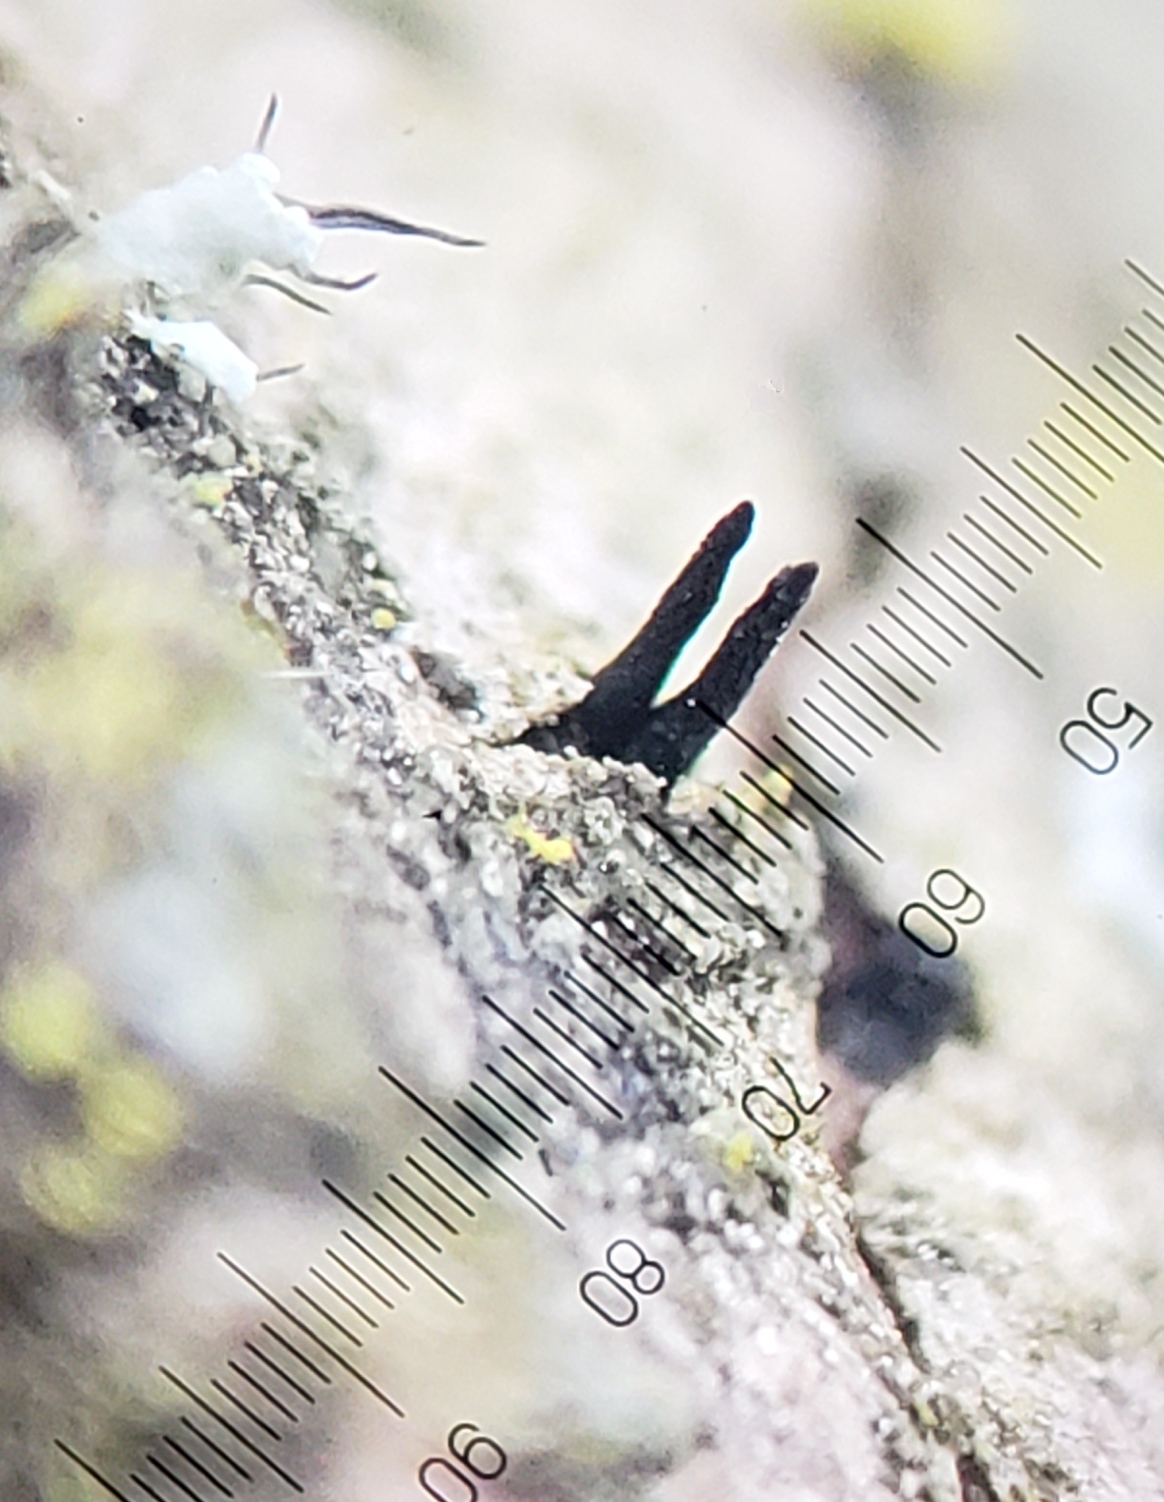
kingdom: Fungi
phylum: Ascomycota
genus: Morrisographium
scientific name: Morrisographium boudieri
